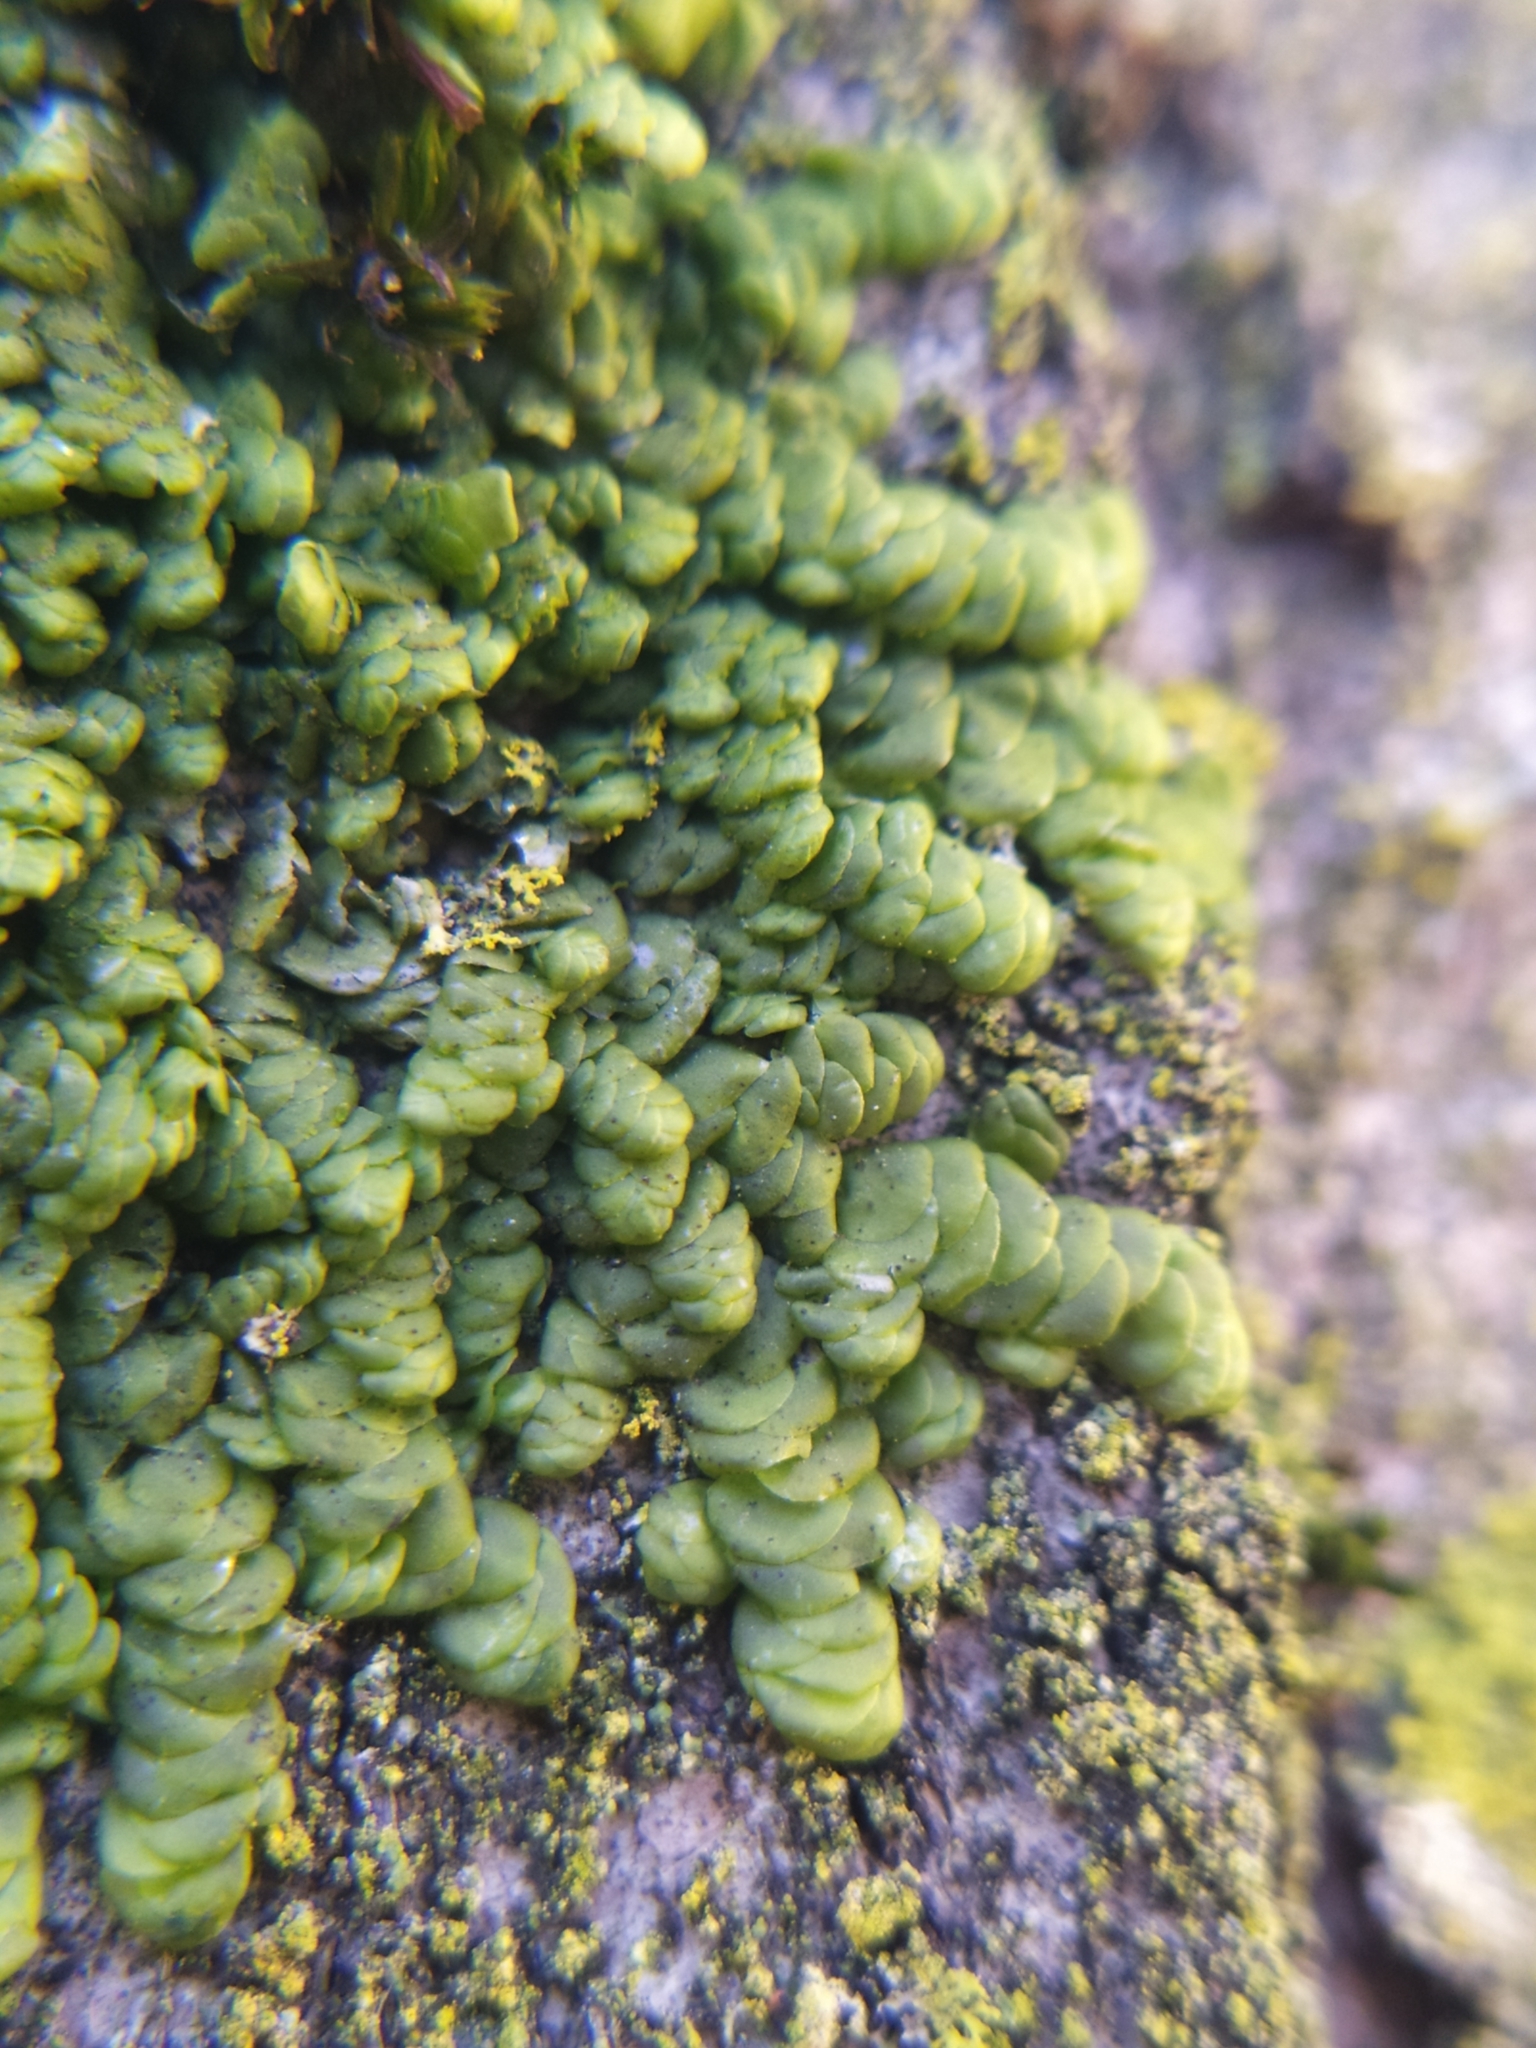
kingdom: Plantae
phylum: Marchantiophyta
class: Jungermanniopsida
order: Porellales
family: Radulaceae
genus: Radula
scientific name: Radula complanata
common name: Flat-leaved scalewort
